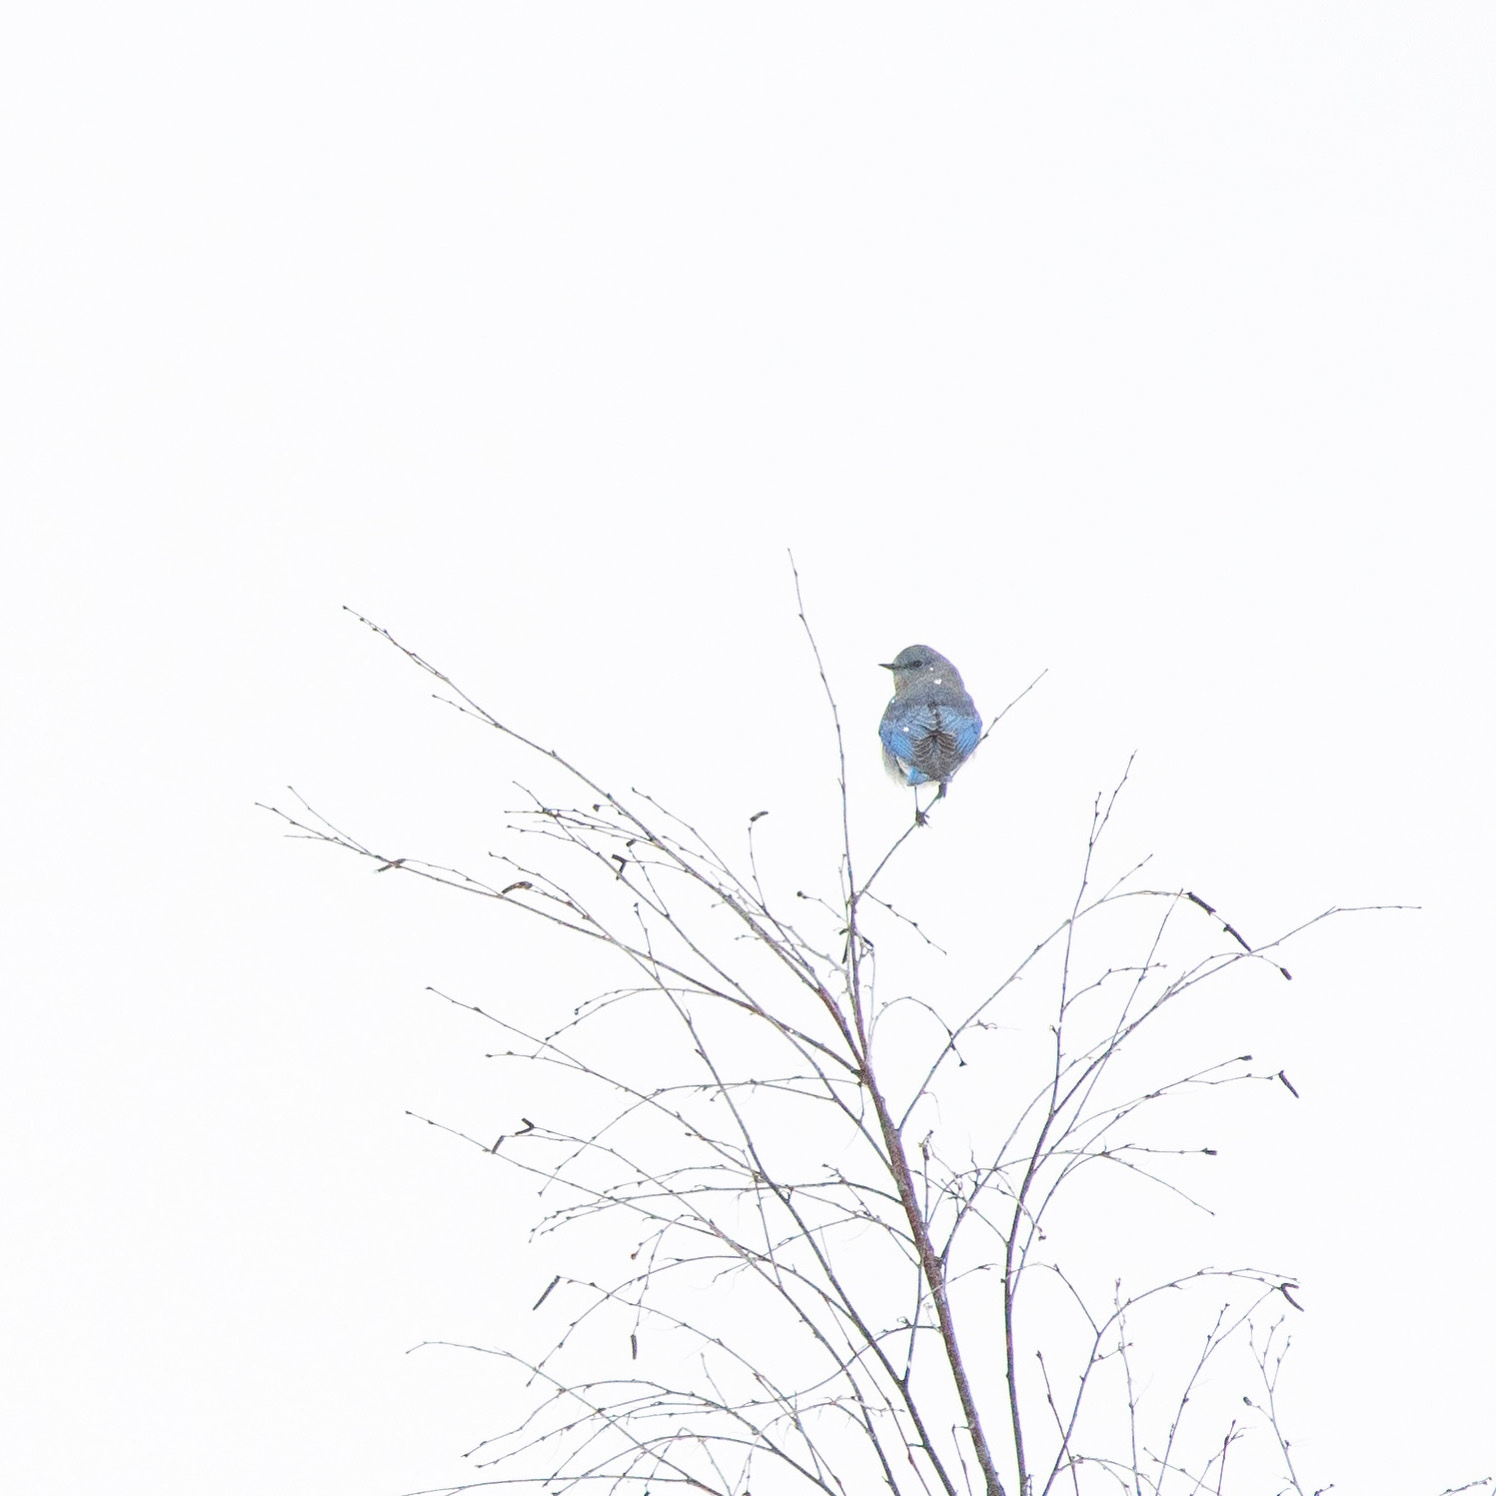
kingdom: Animalia
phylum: Chordata
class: Aves
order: Passeriformes
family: Turdidae
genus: Sialia
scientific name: Sialia currucoides
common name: Mountain bluebird
